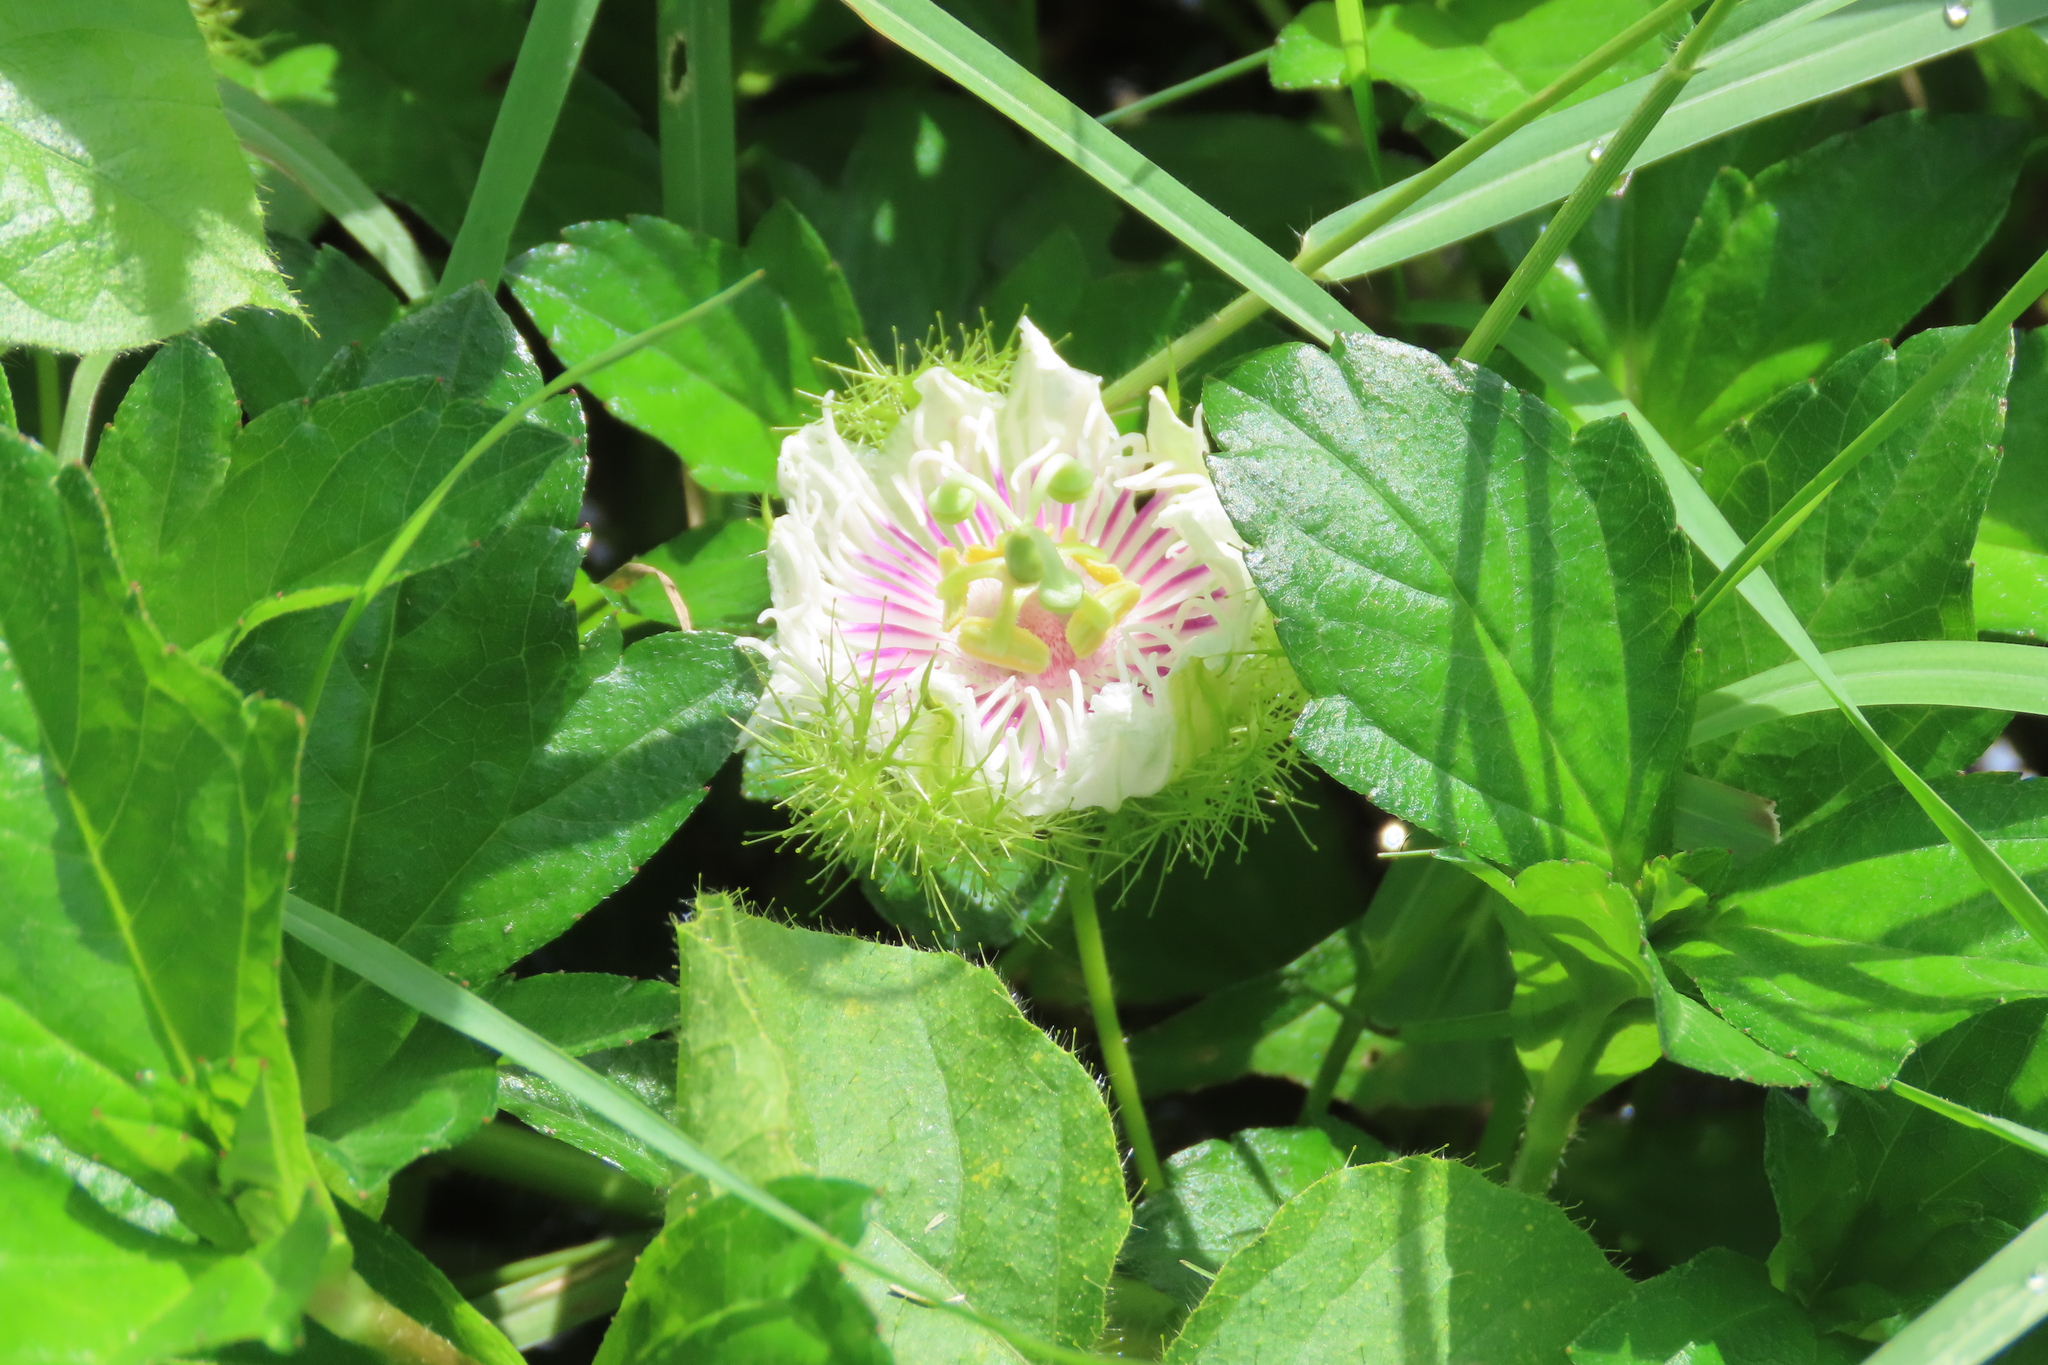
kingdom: Plantae
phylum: Tracheophyta
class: Magnoliopsida
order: Malpighiales
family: Passifloraceae
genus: Passiflora
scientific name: Passiflora foetida
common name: Fetid passionflower
